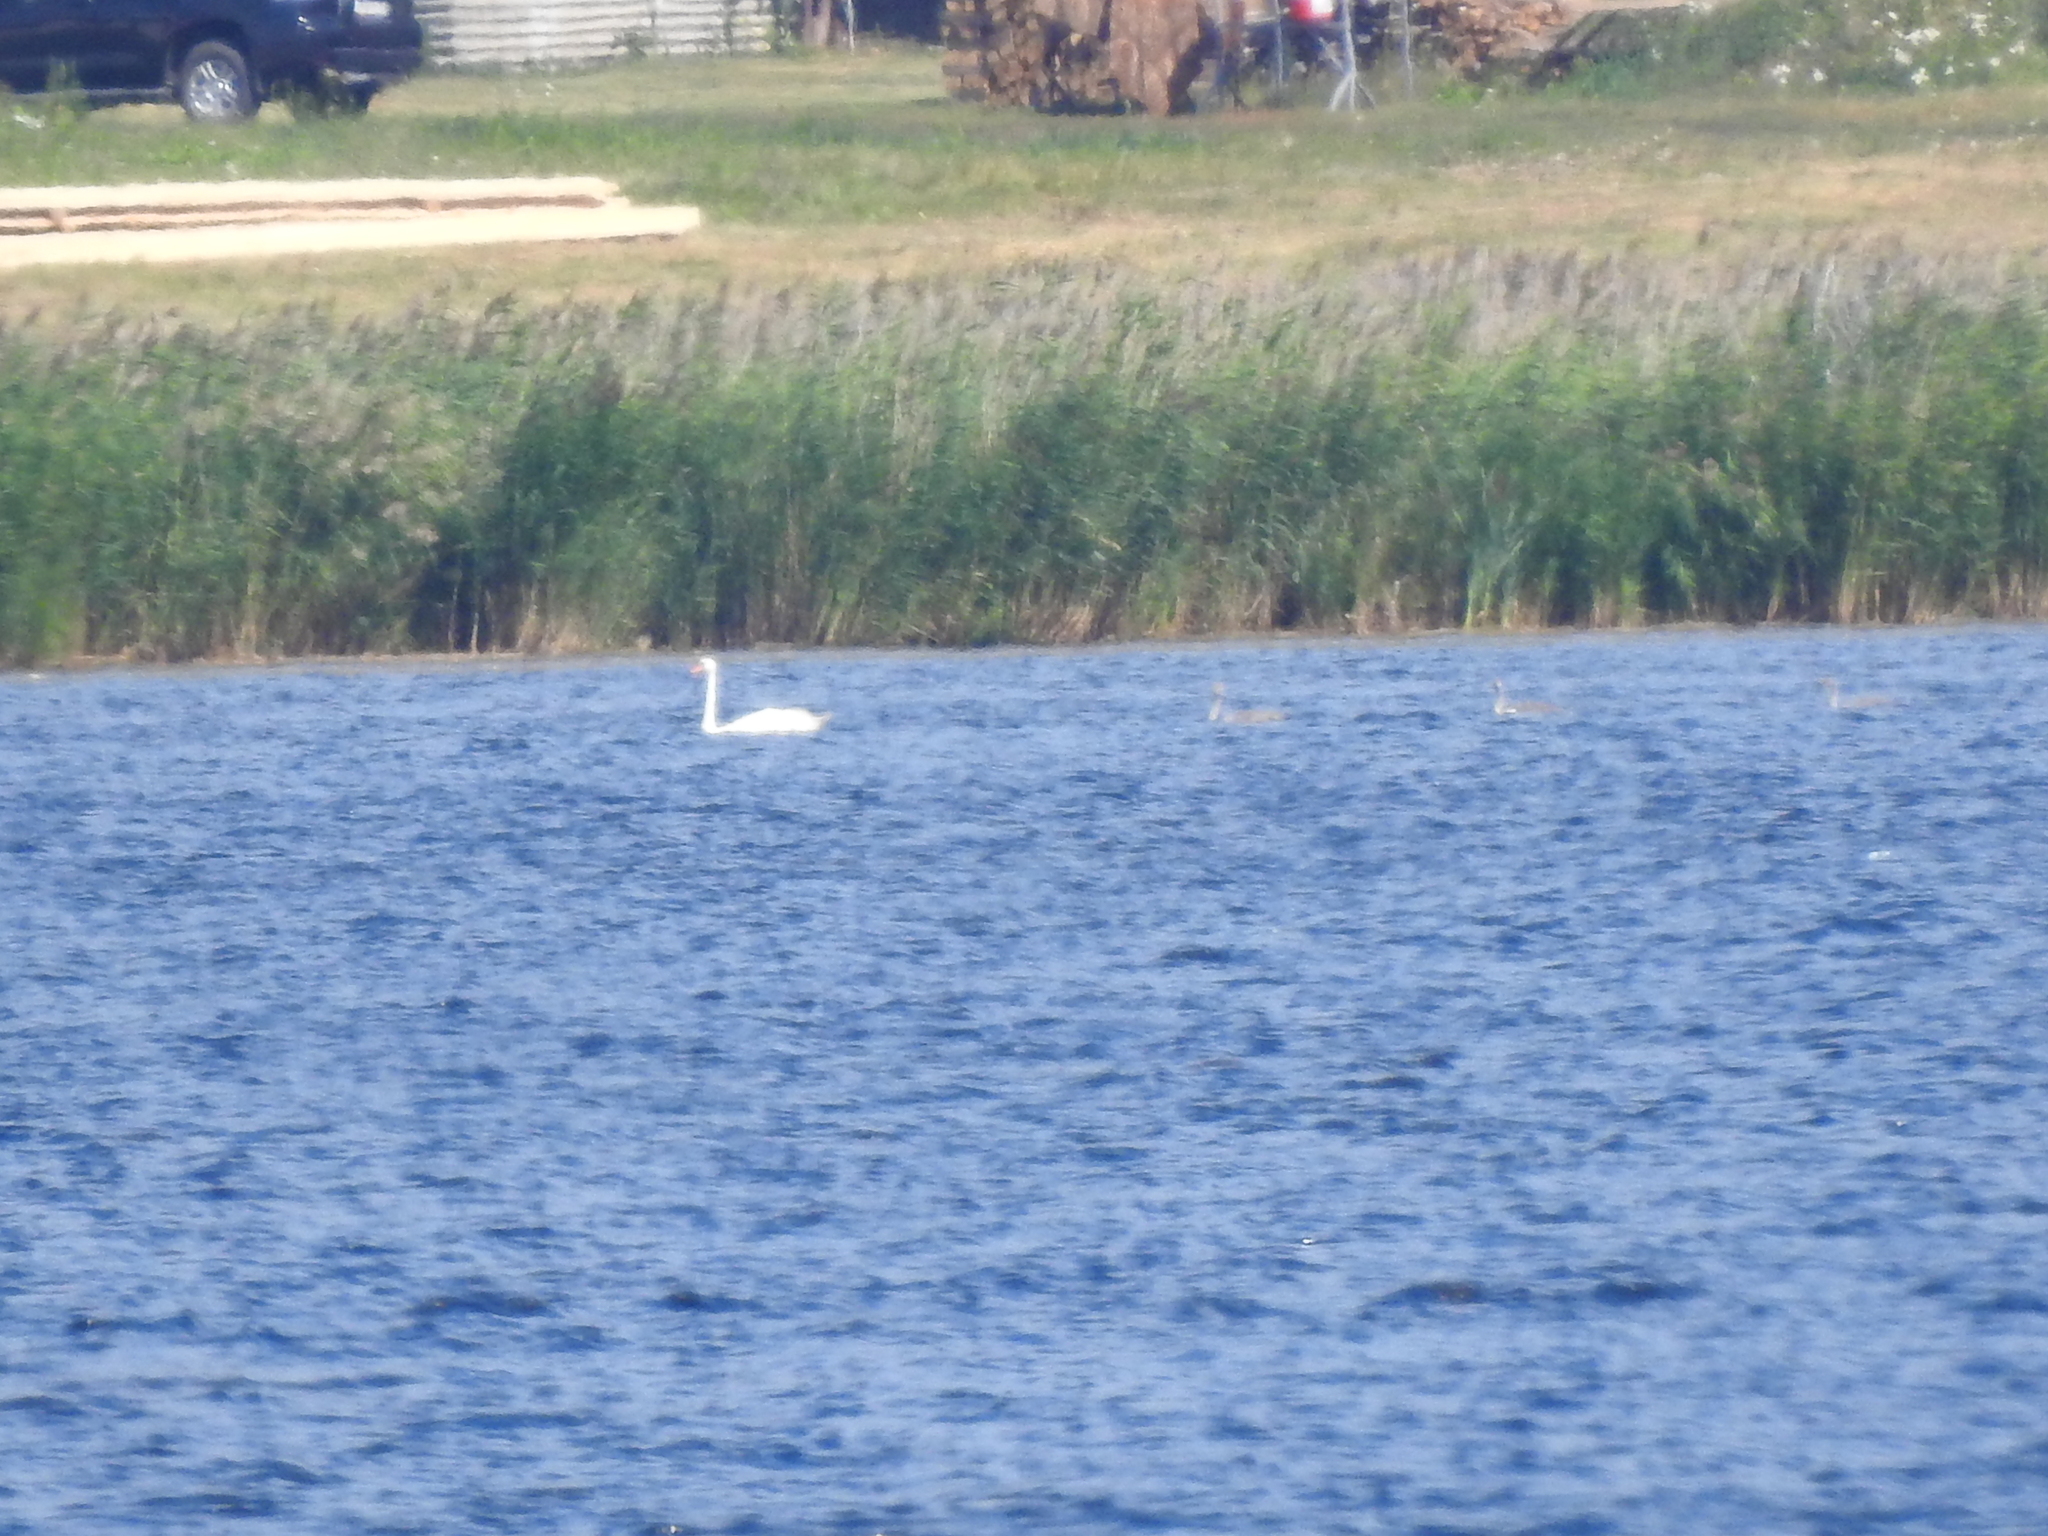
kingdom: Animalia
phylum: Chordata
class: Aves
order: Anseriformes
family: Anatidae
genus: Cygnus
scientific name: Cygnus olor
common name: Mute swan
